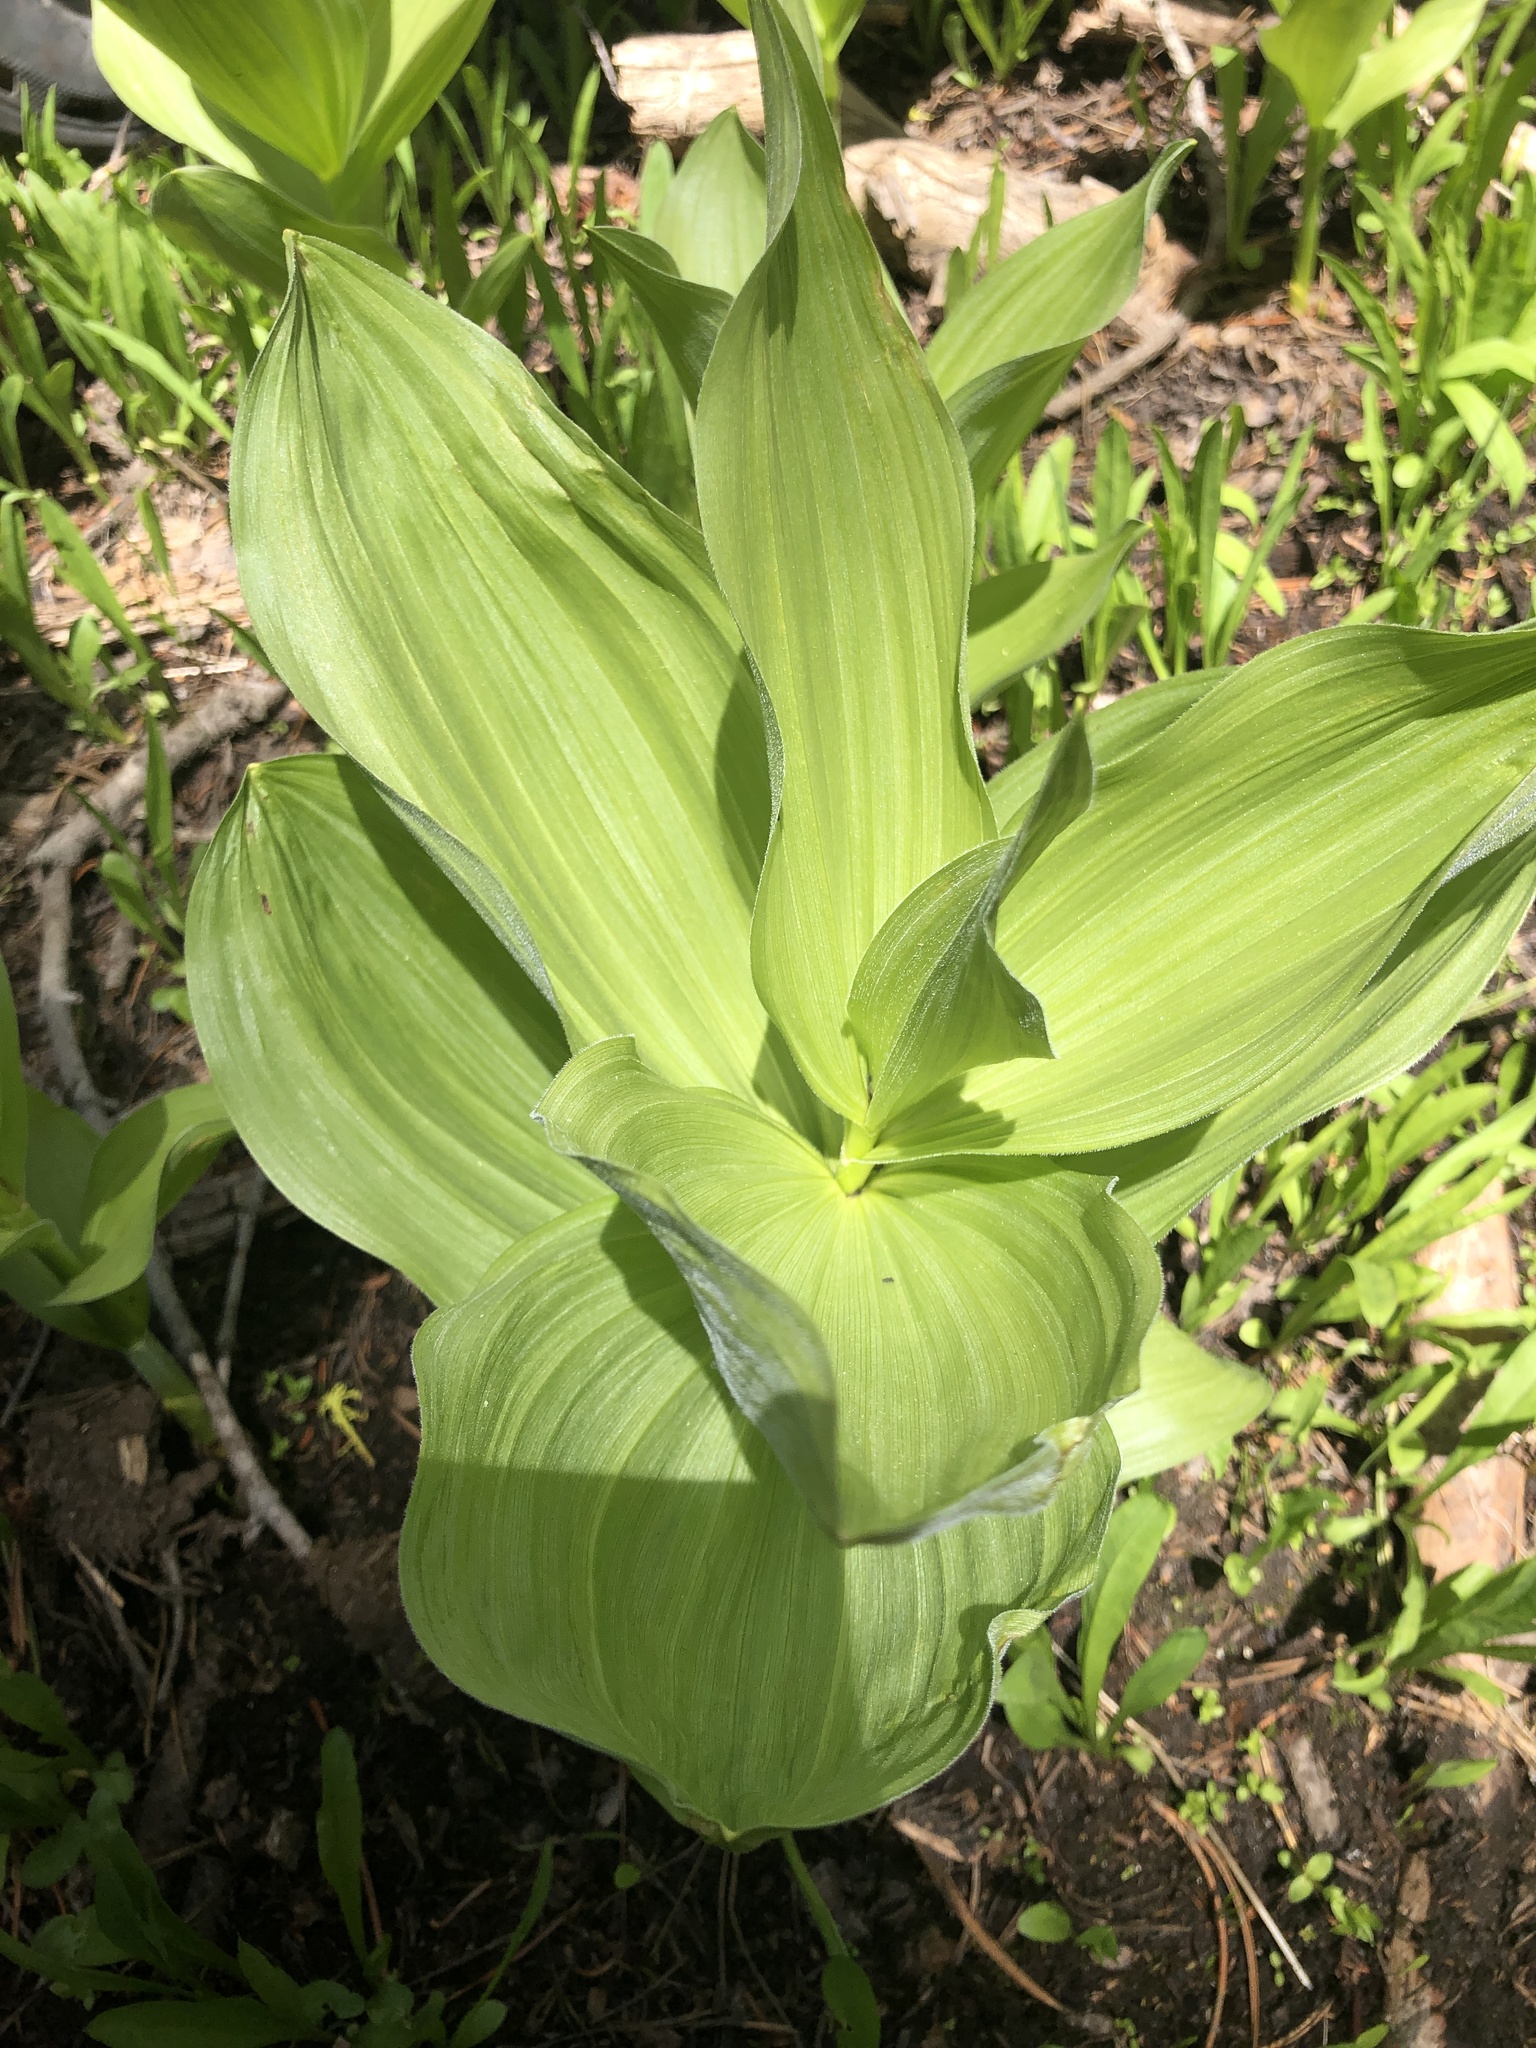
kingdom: Plantae
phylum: Tracheophyta
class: Liliopsida
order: Liliales
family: Melanthiaceae
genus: Veratrum
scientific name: Veratrum californicum
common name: California veratrum
